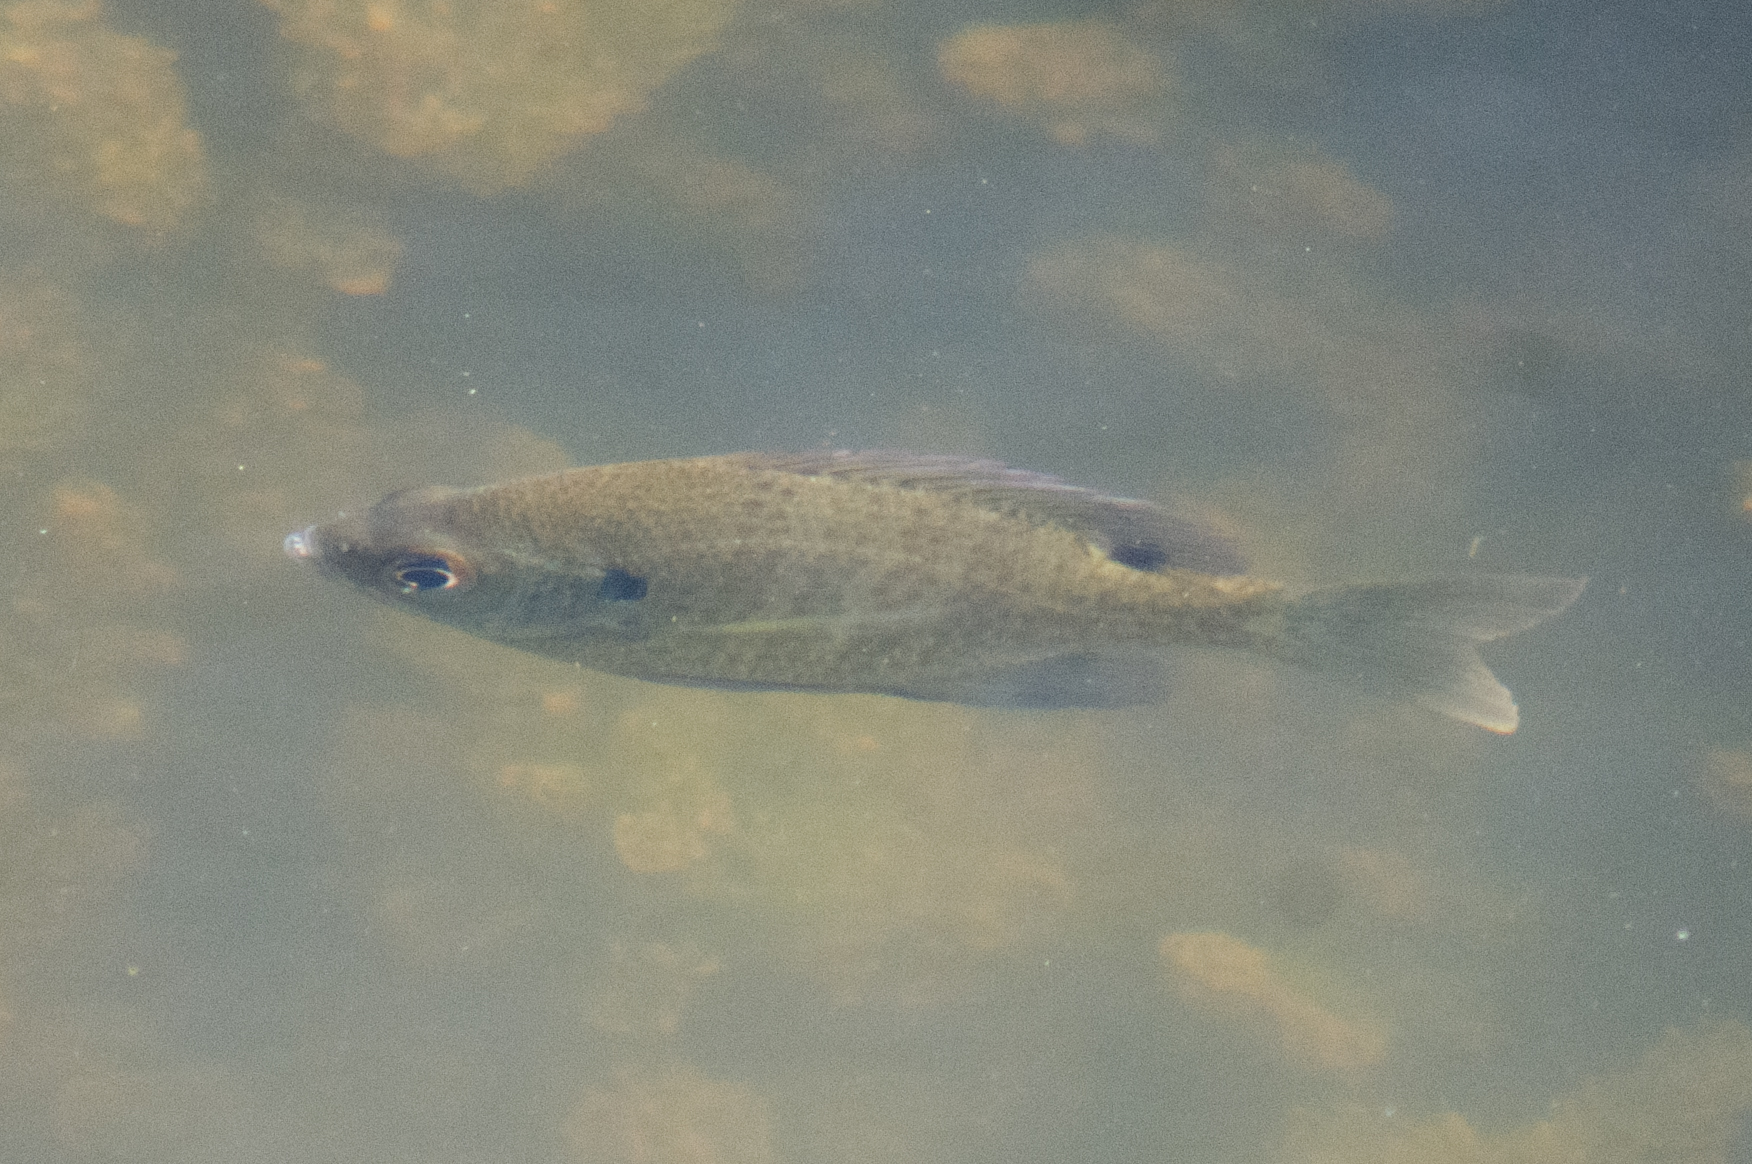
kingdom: Animalia
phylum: Chordata
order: Perciformes
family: Centrarchidae
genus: Lepomis
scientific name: Lepomis macrochirus
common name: Bluegill
